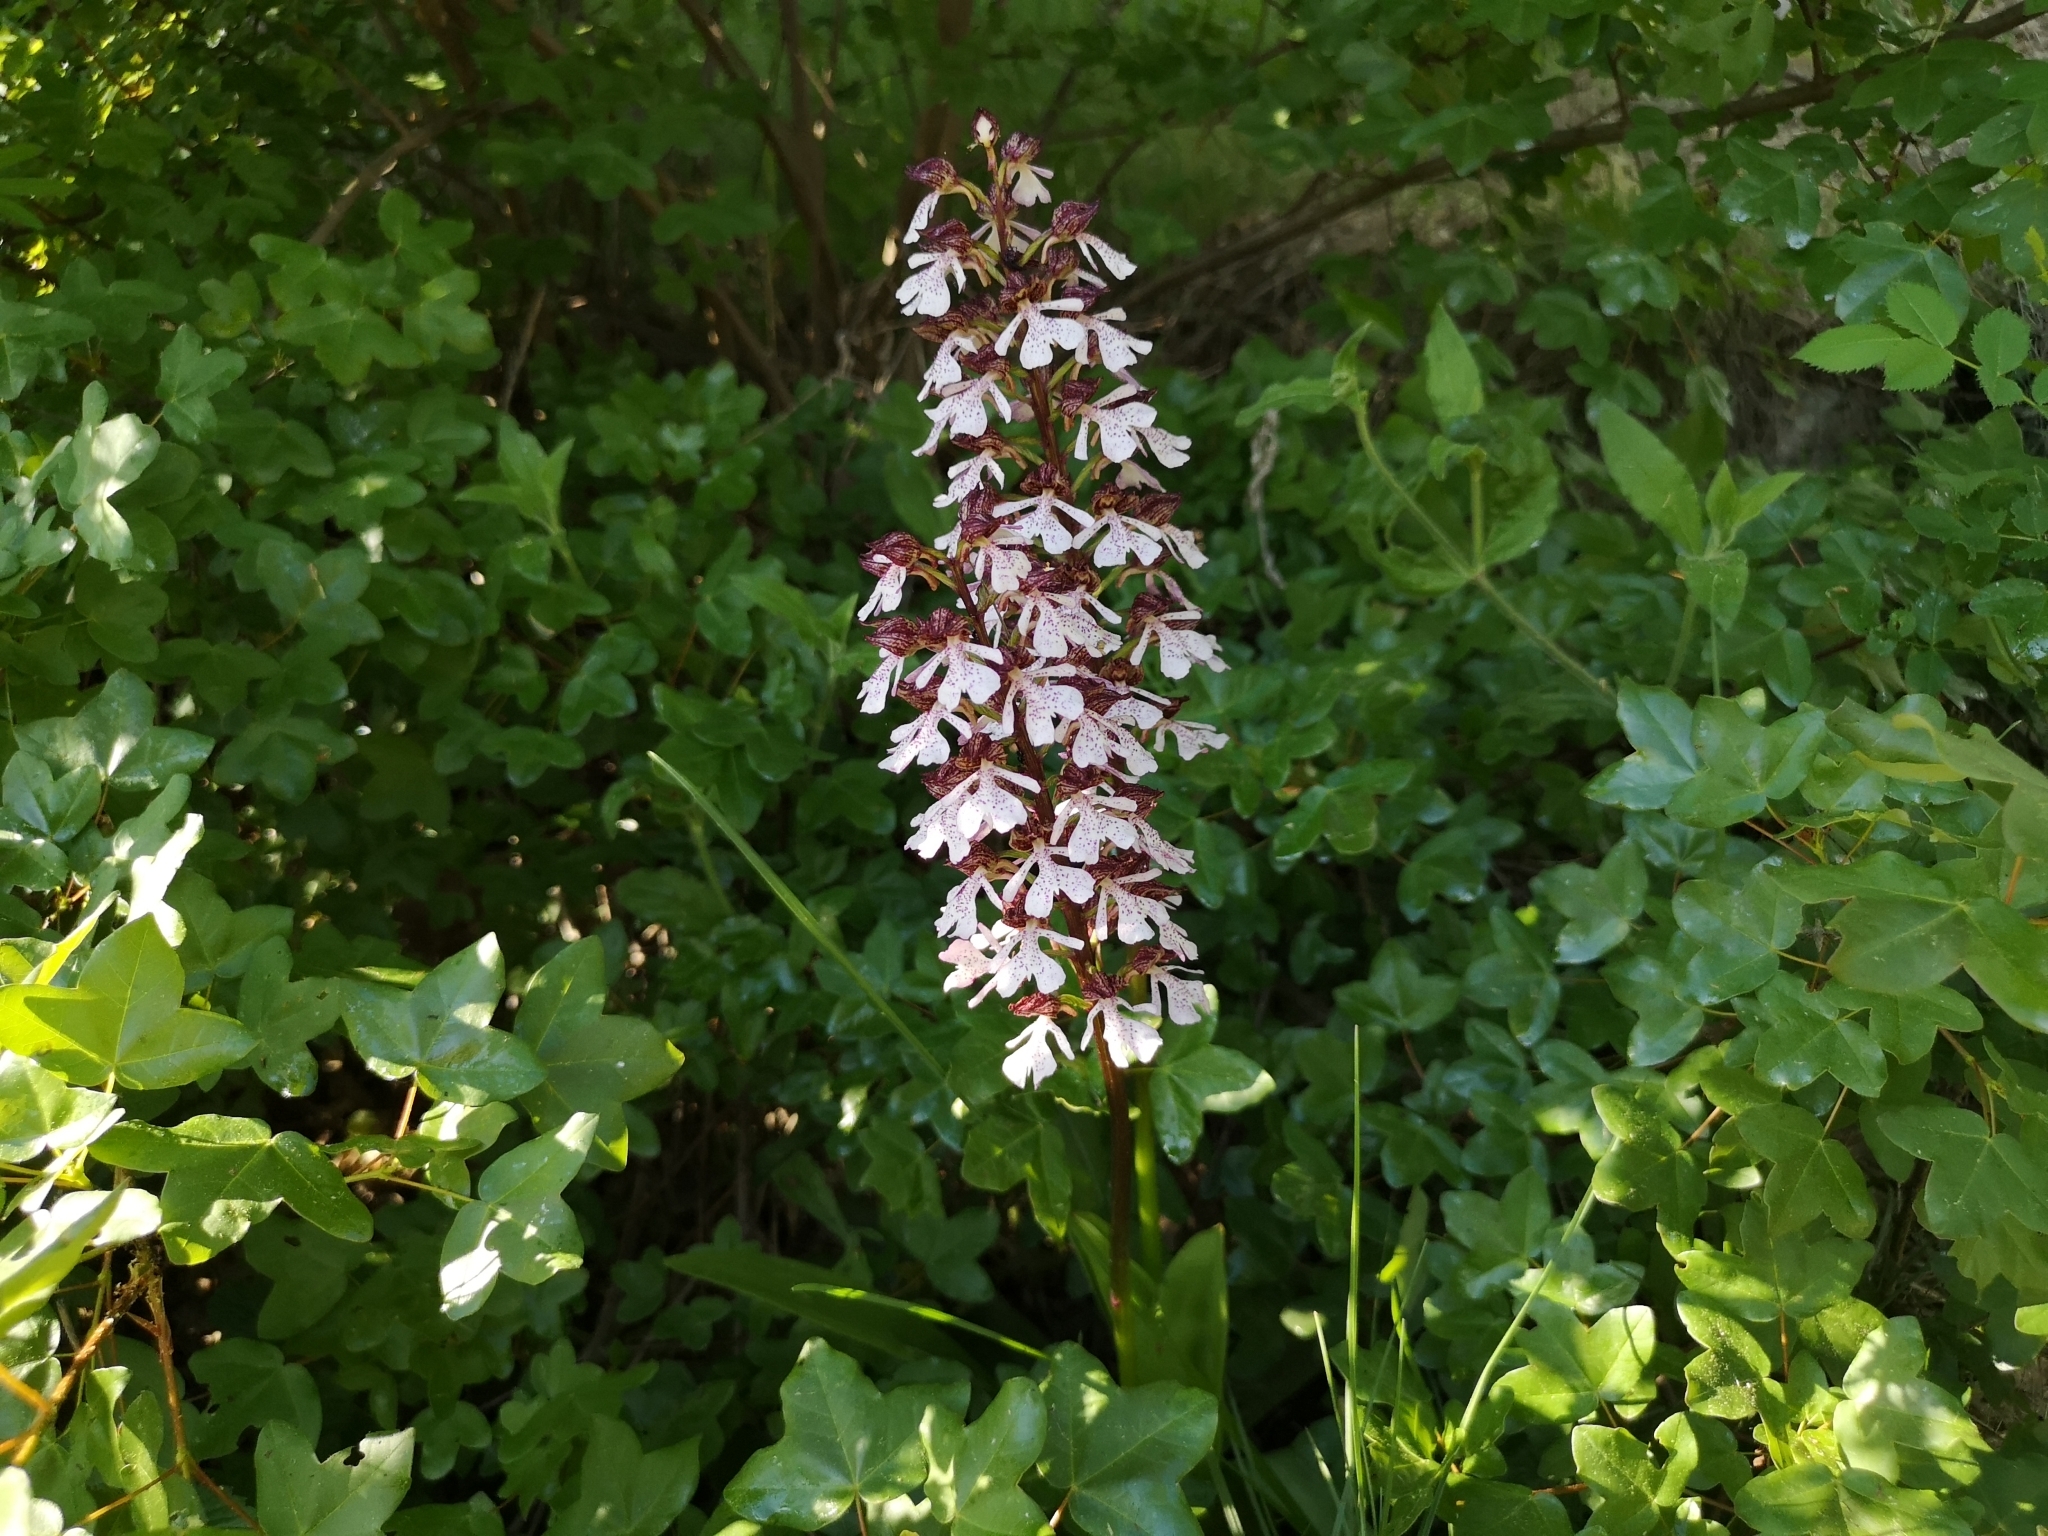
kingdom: Plantae
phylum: Tracheophyta
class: Liliopsida
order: Asparagales
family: Orchidaceae
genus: Orchis
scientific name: Orchis purpurea
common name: Lady orchid
